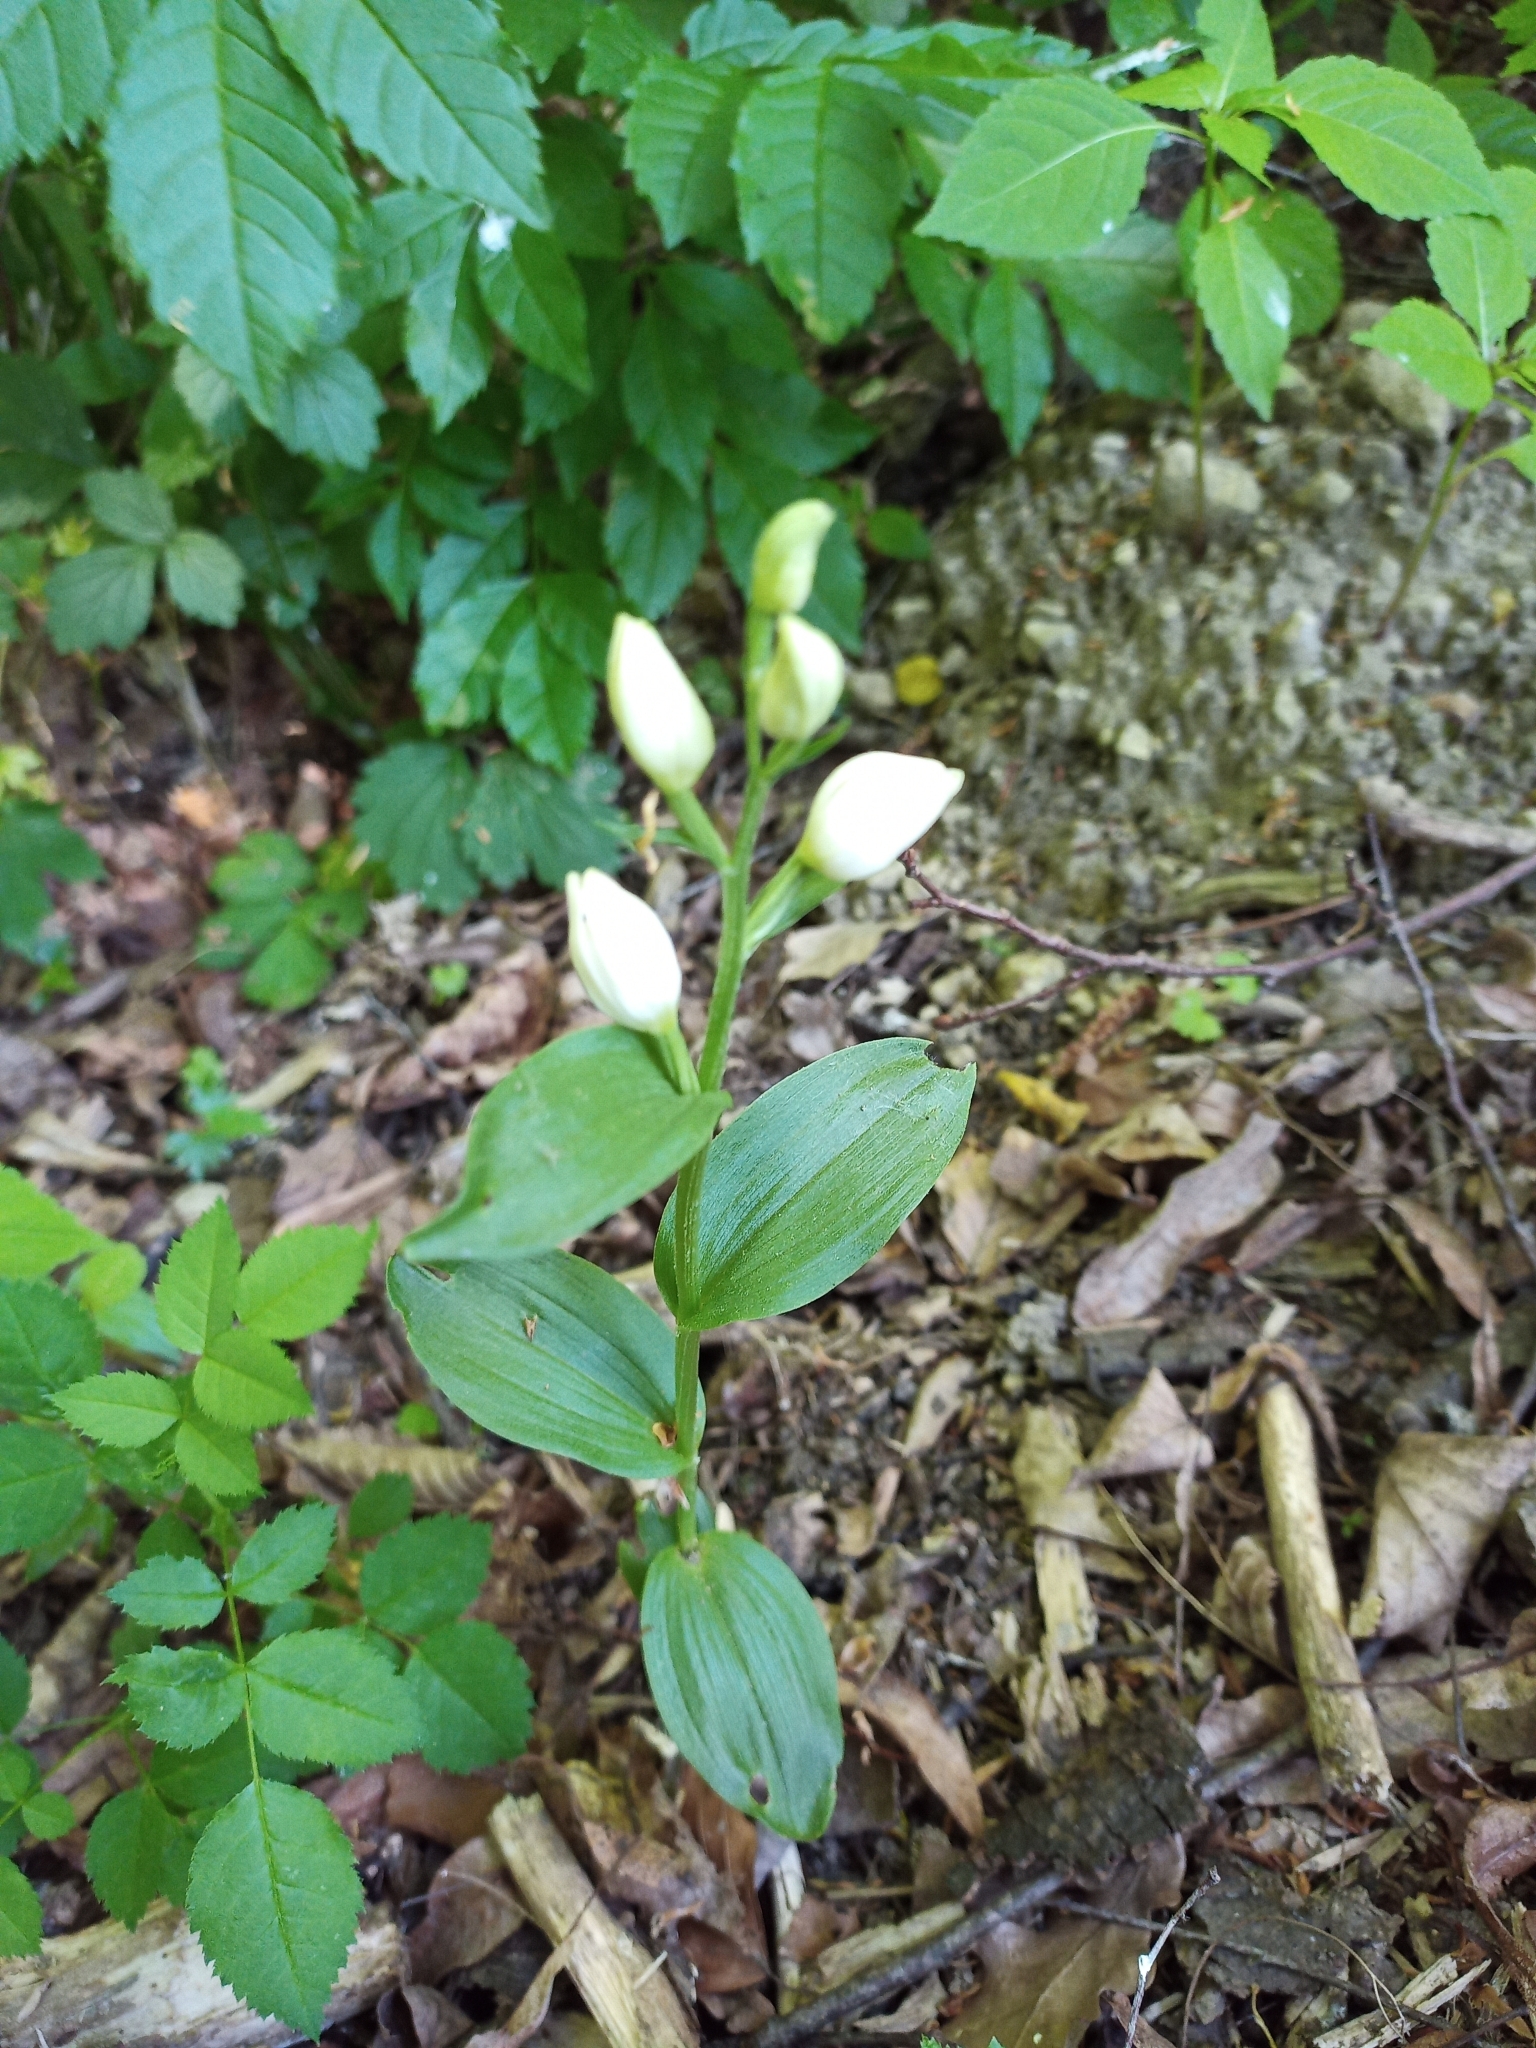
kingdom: Plantae
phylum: Tracheophyta
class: Liliopsida
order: Asparagales
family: Orchidaceae
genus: Cephalanthera
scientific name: Cephalanthera damasonium
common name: White helleborine
